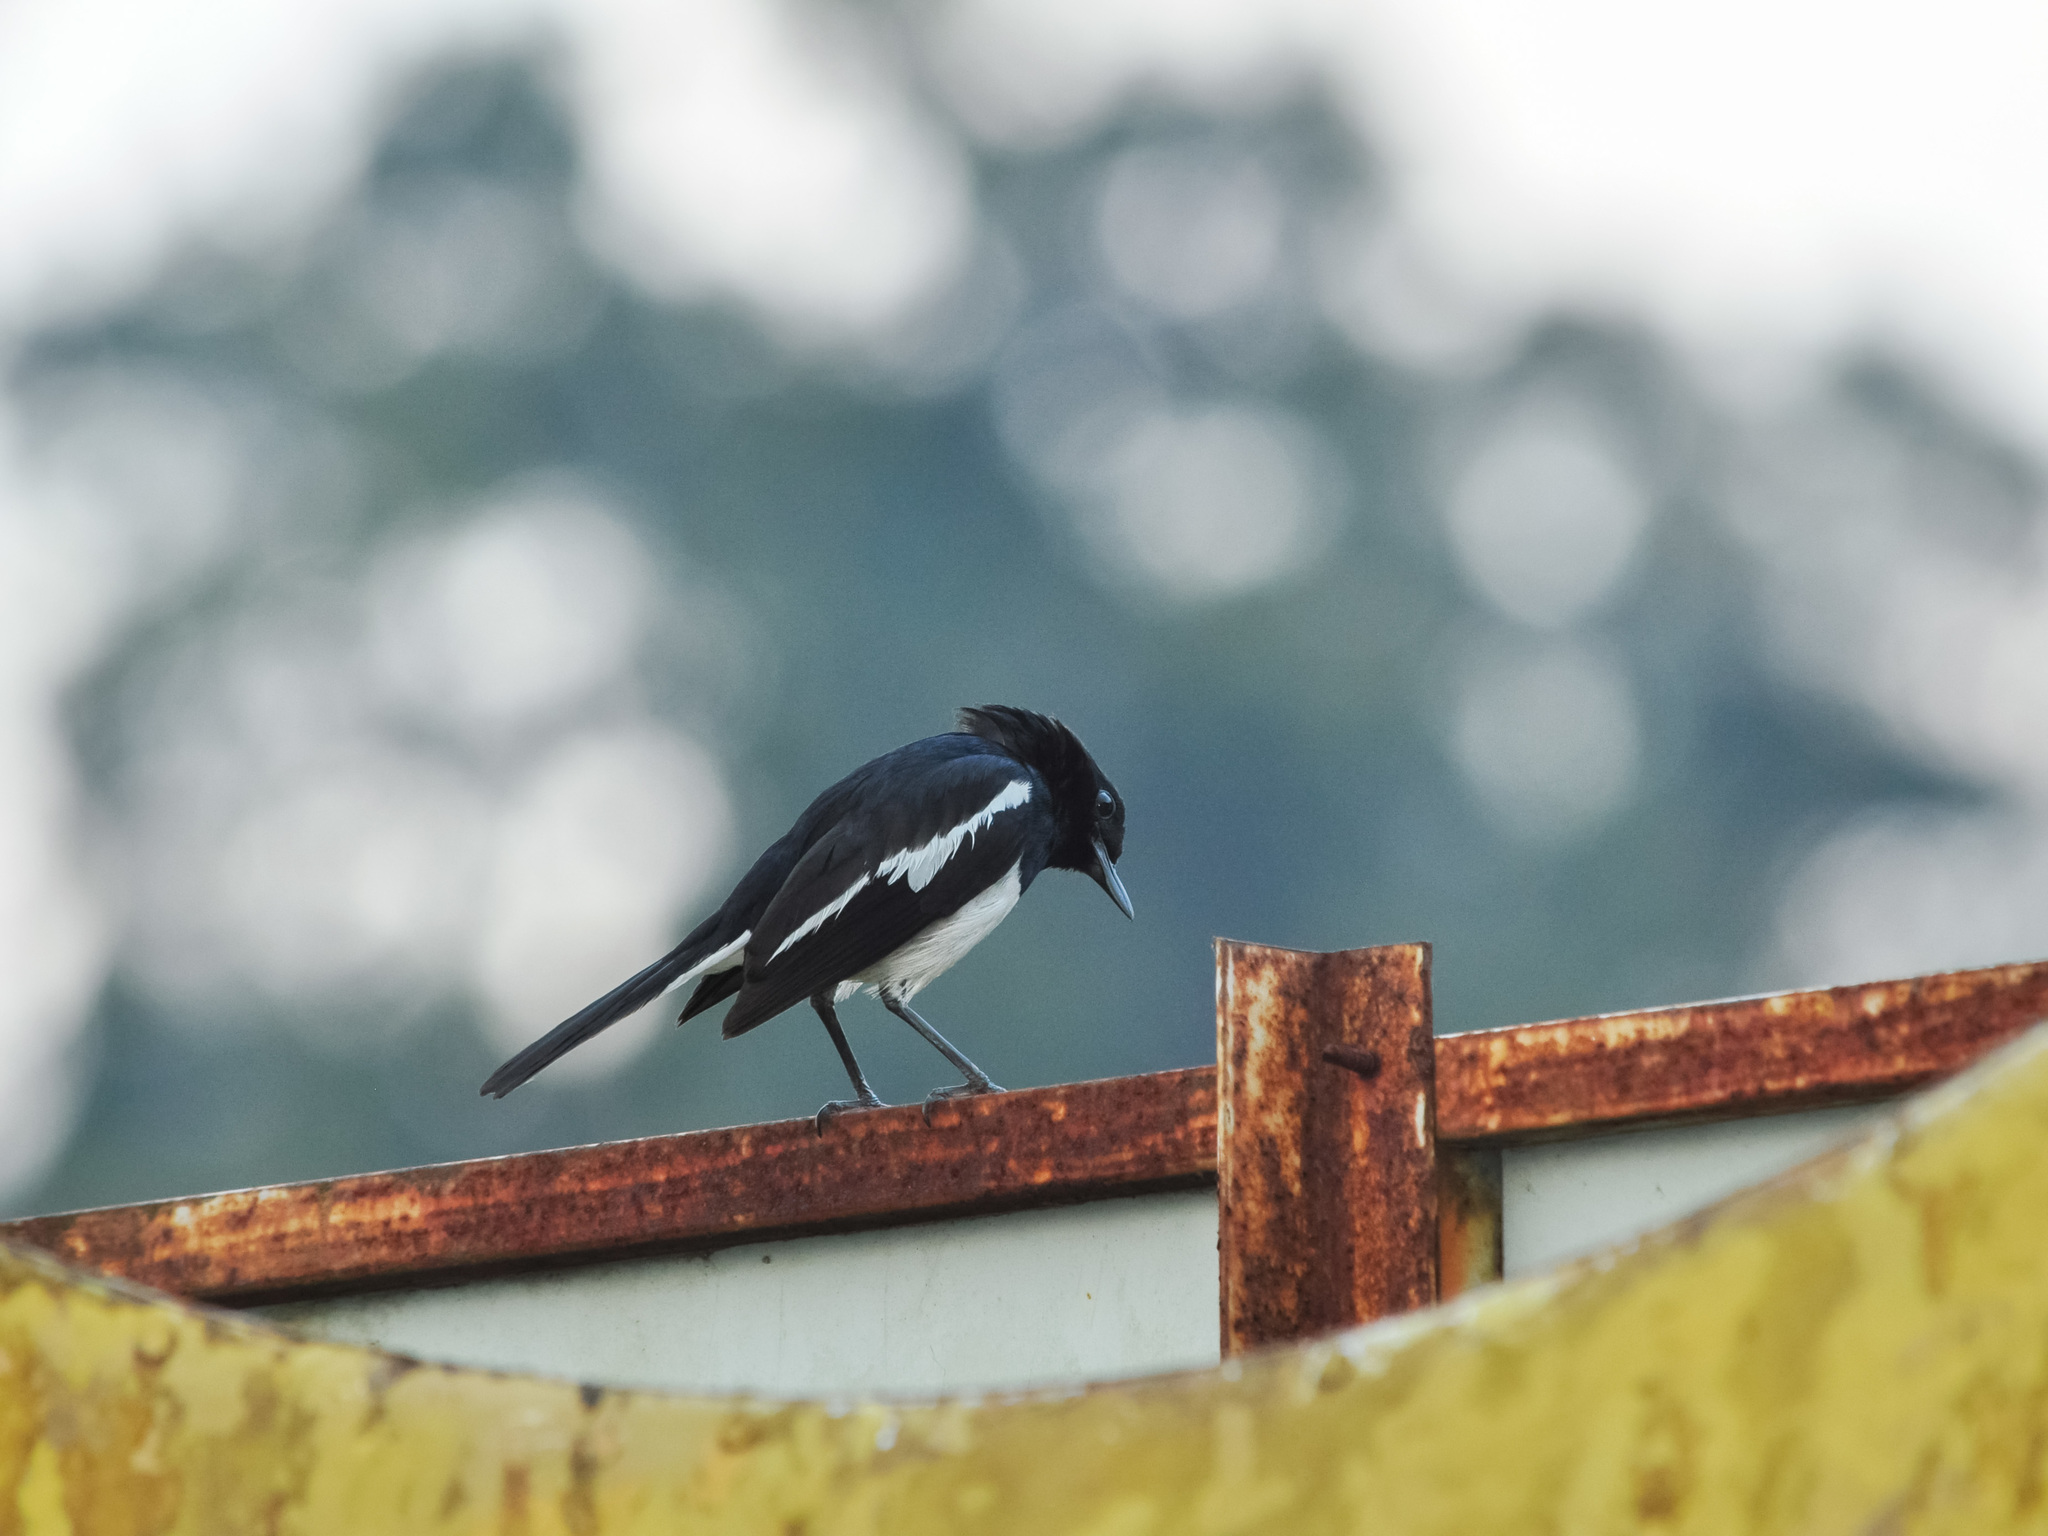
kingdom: Animalia
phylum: Chordata
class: Aves
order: Passeriformes
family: Muscicapidae
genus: Copsychus
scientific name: Copsychus saularis
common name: Oriental magpie-robin
